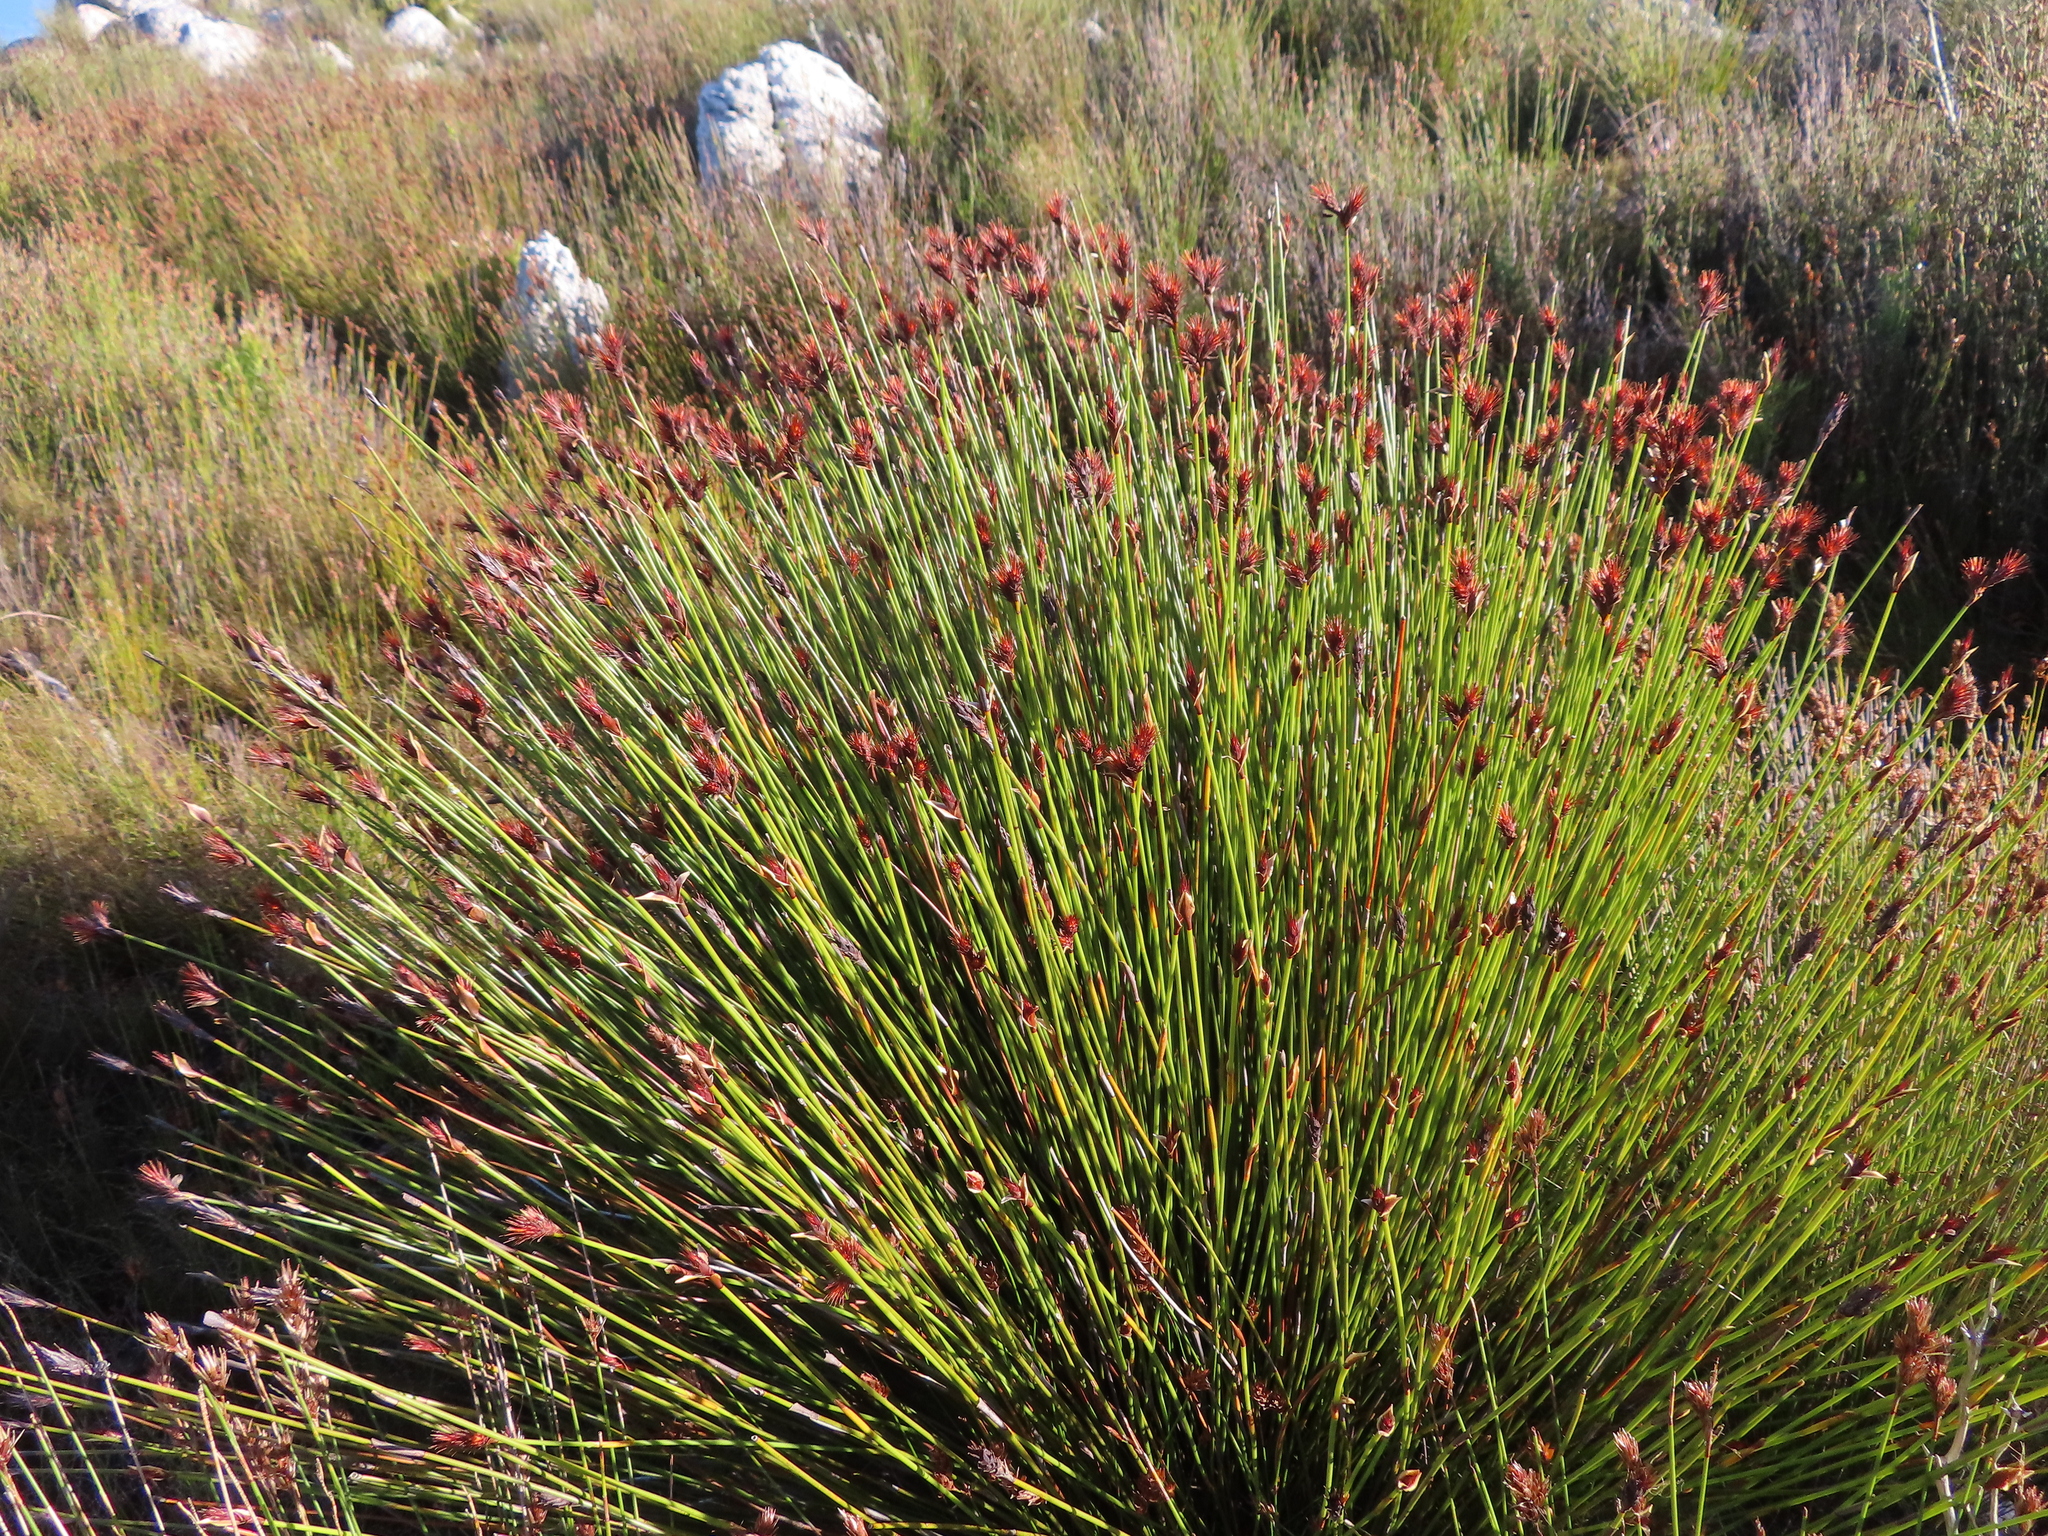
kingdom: Plantae
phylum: Tracheophyta
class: Liliopsida
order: Poales
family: Restionaceae
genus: Hypodiscus
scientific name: Hypodiscus aristatus
